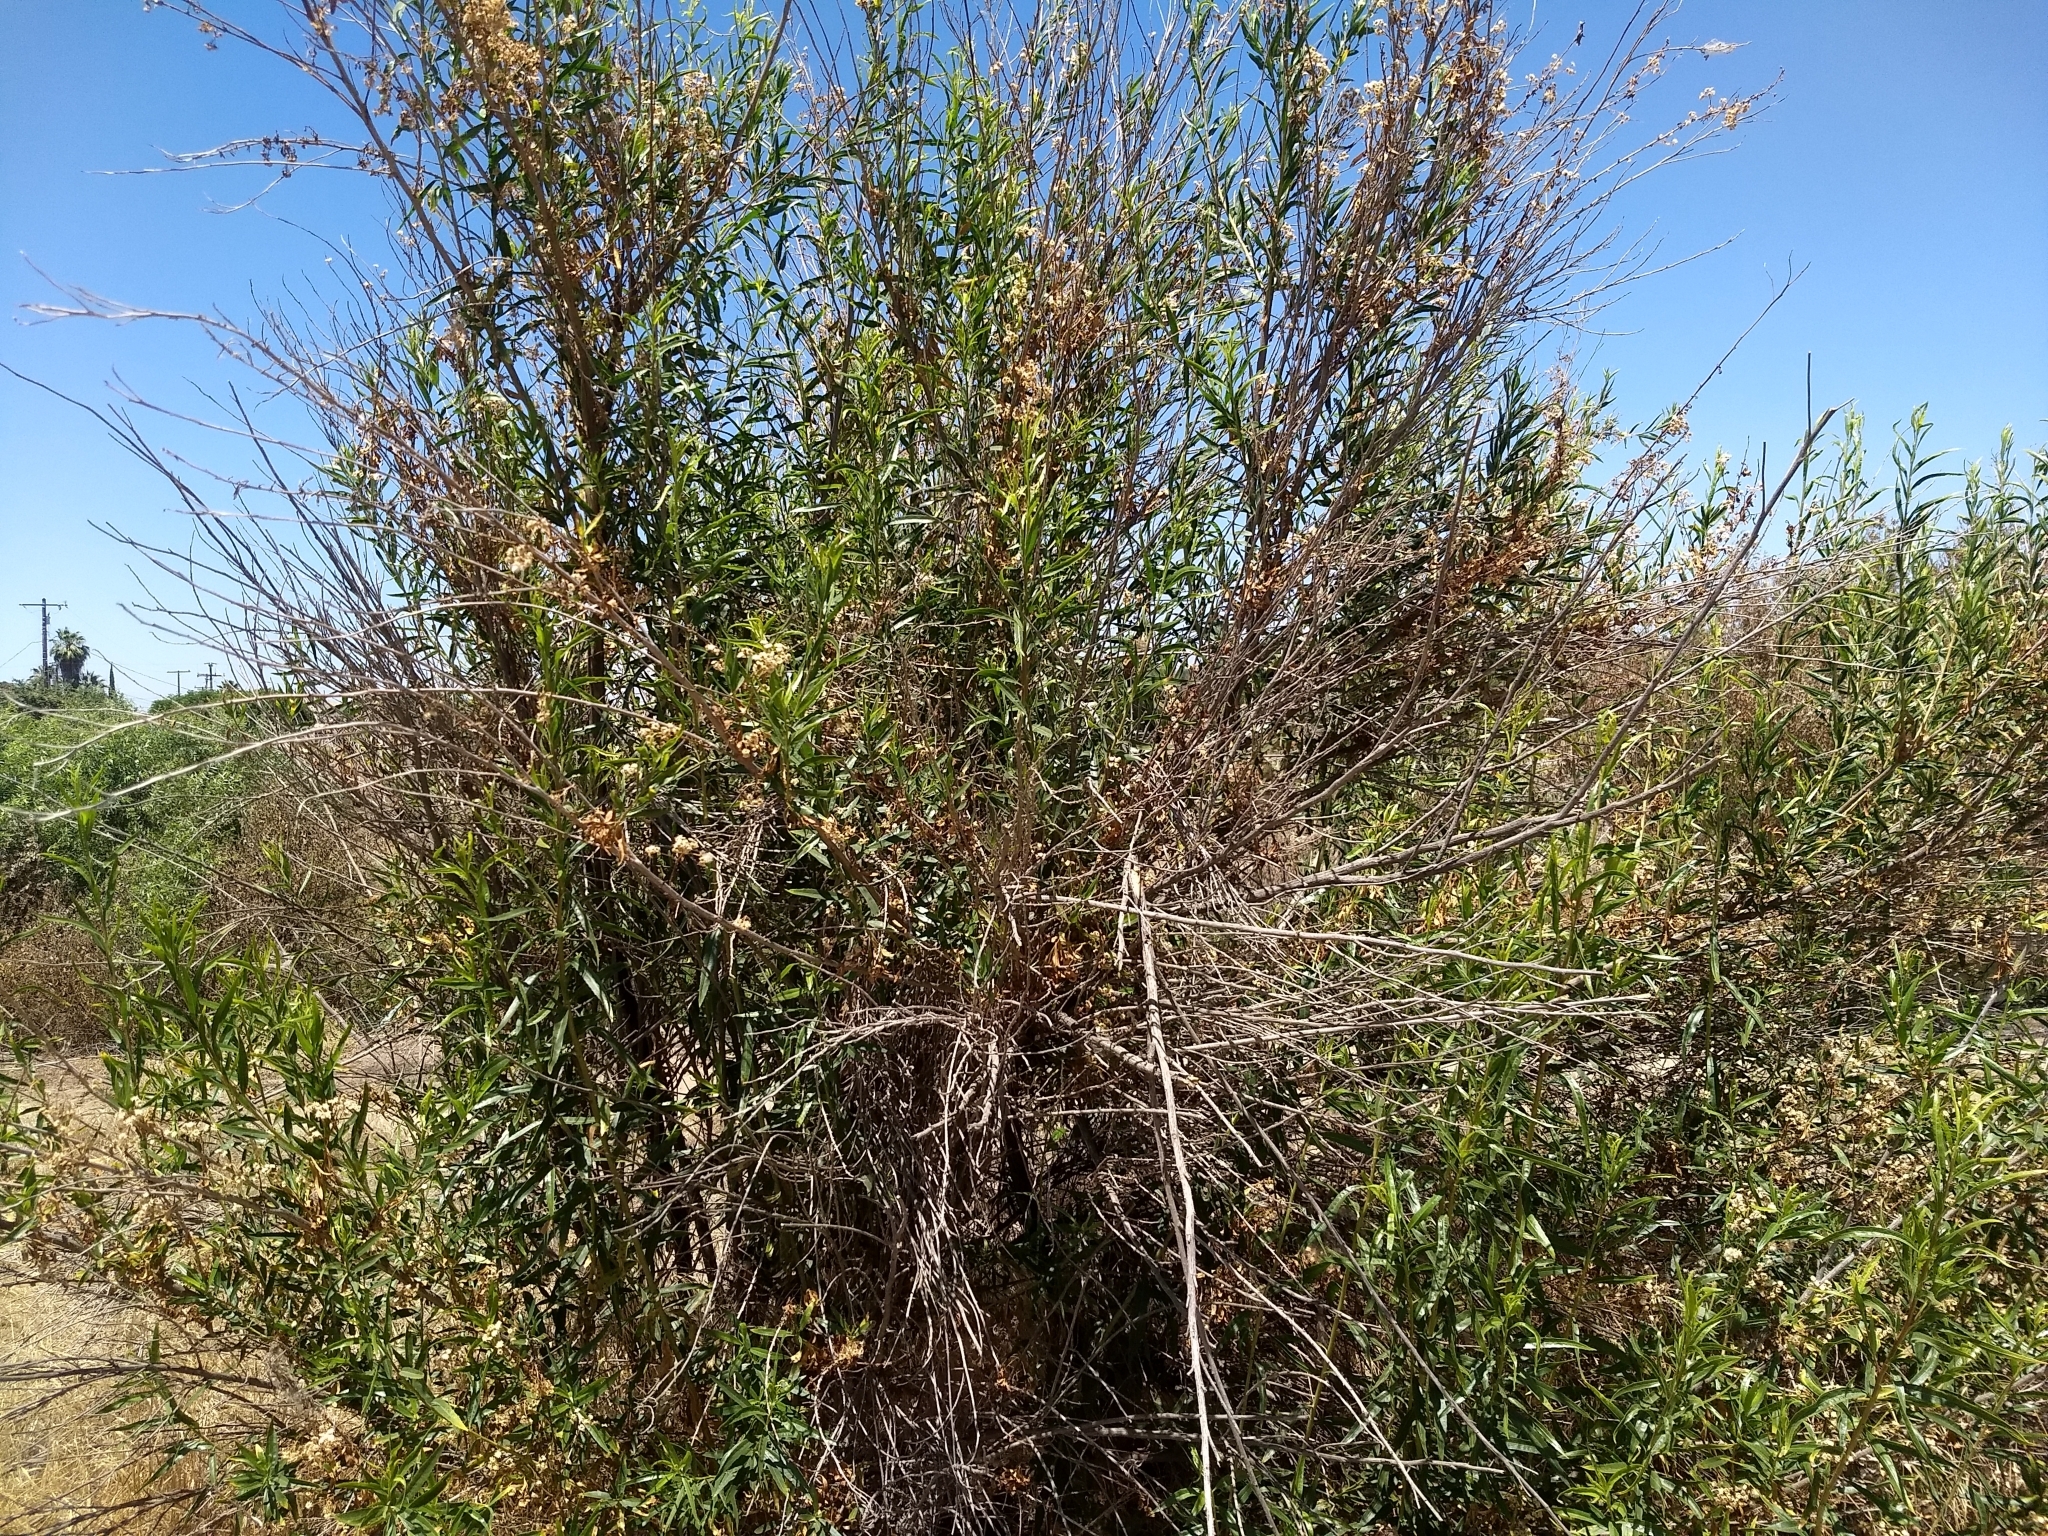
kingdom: Plantae
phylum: Tracheophyta
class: Magnoliopsida
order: Asterales
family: Asteraceae
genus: Baccharis
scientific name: Baccharis salicifolia
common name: Sticky baccharis
